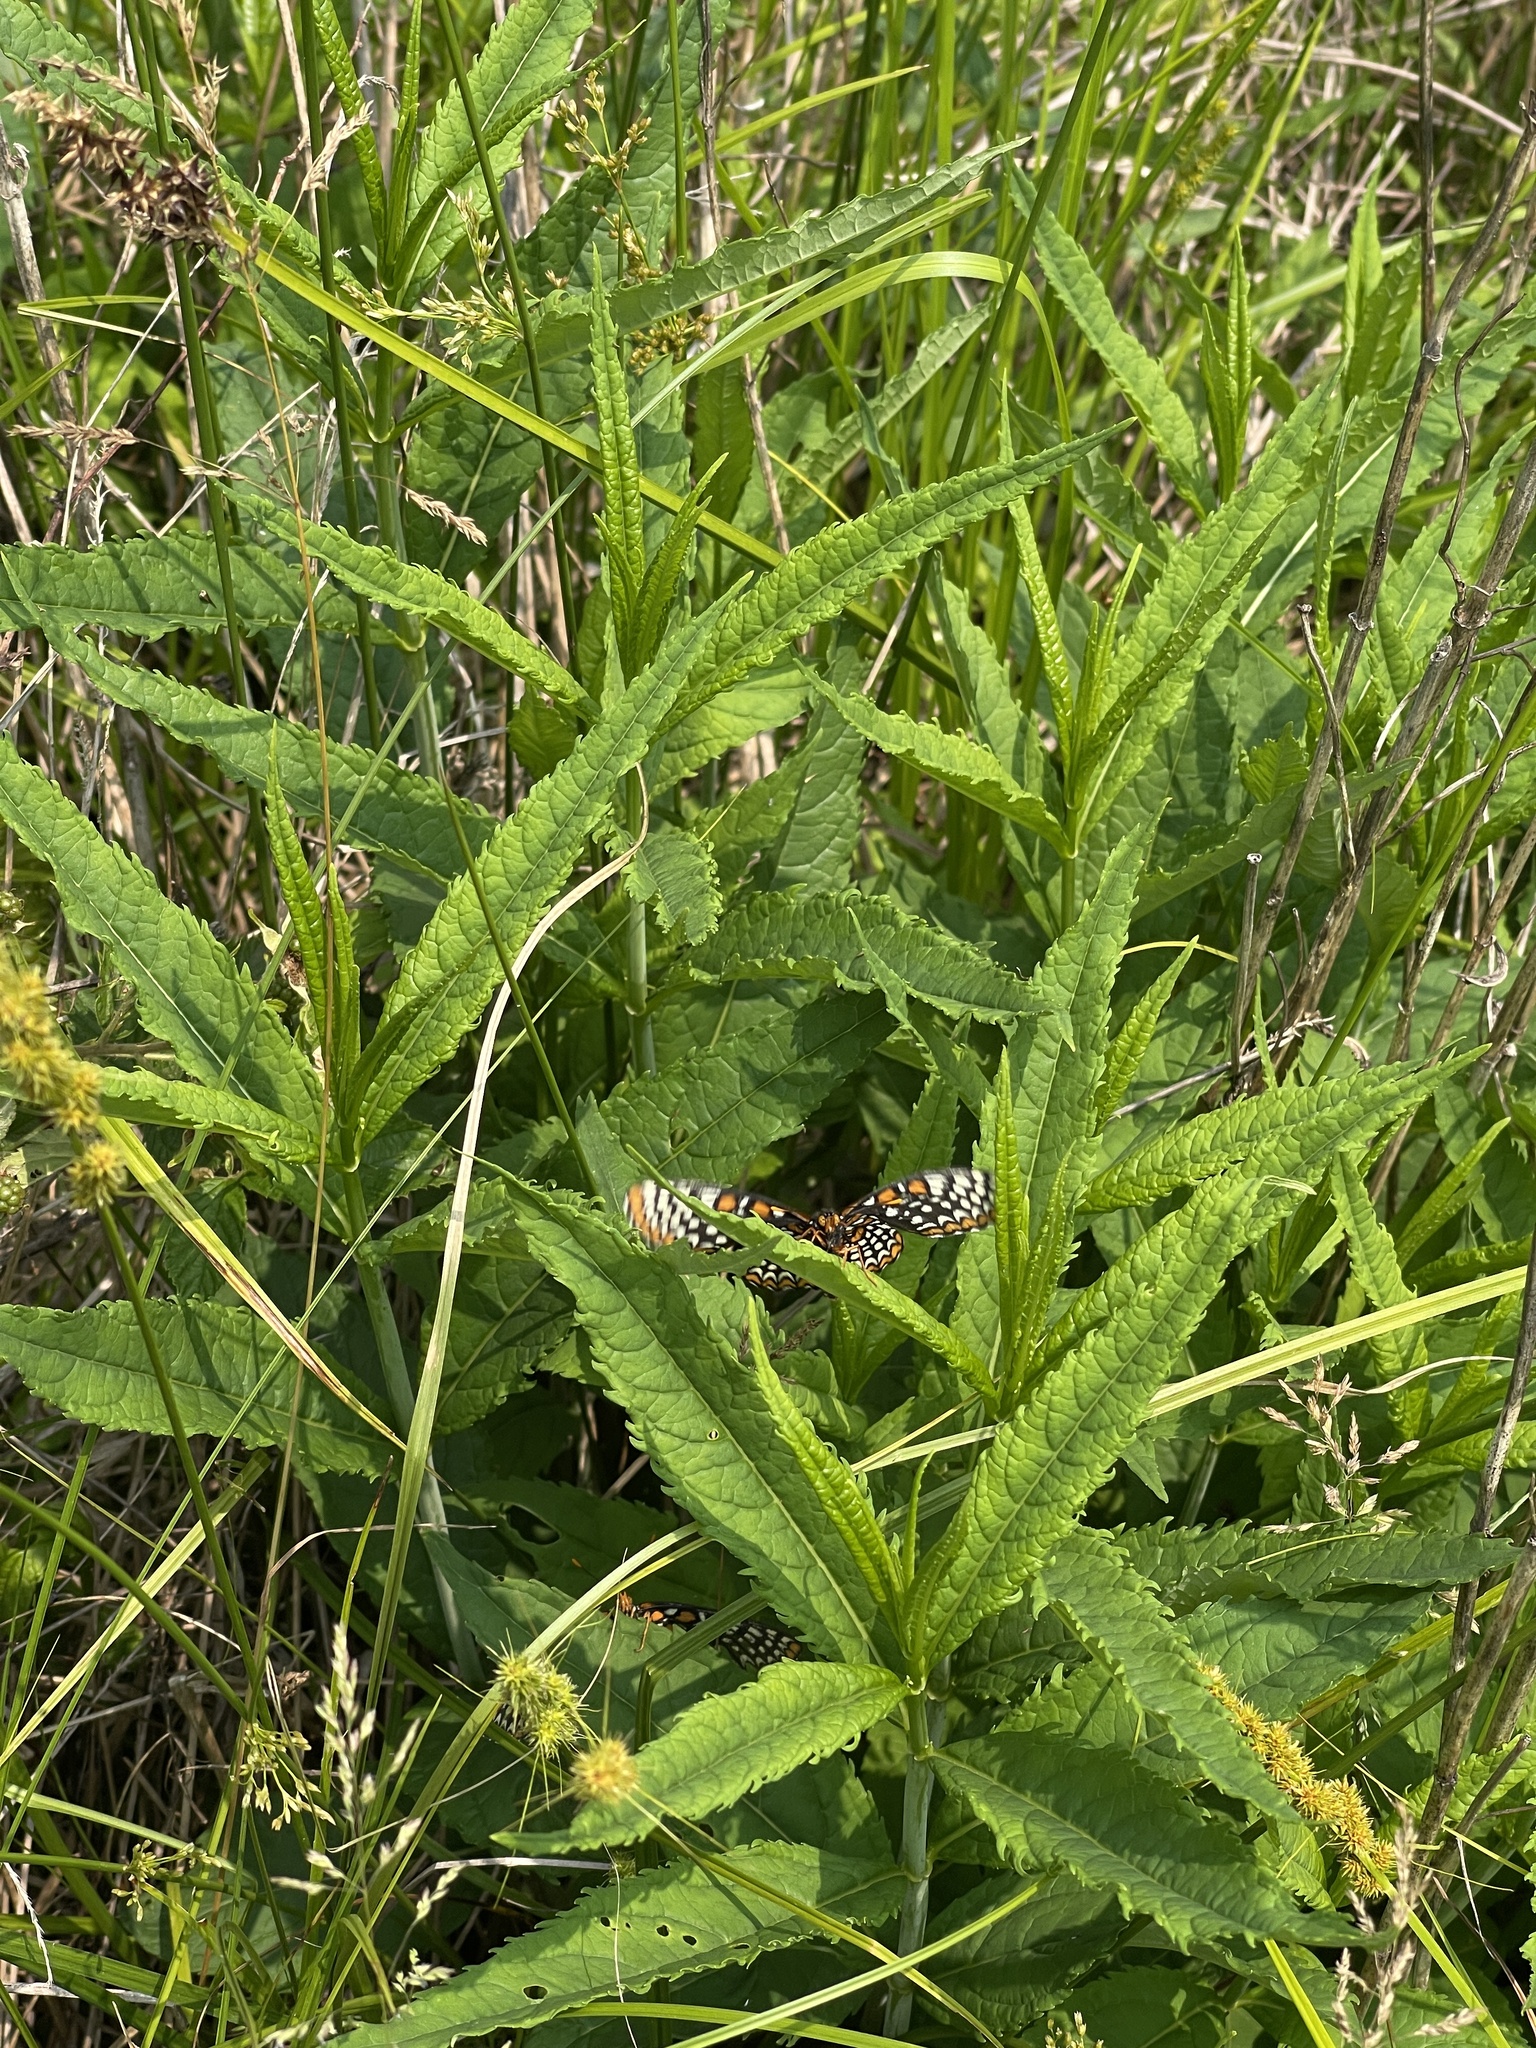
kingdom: Animalia
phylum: Arthropoda
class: Insecta
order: Lepidoptera
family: Nymphalidae
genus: Euphydryas
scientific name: Euphydryas phaeton
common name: Baltimore checkerspot
